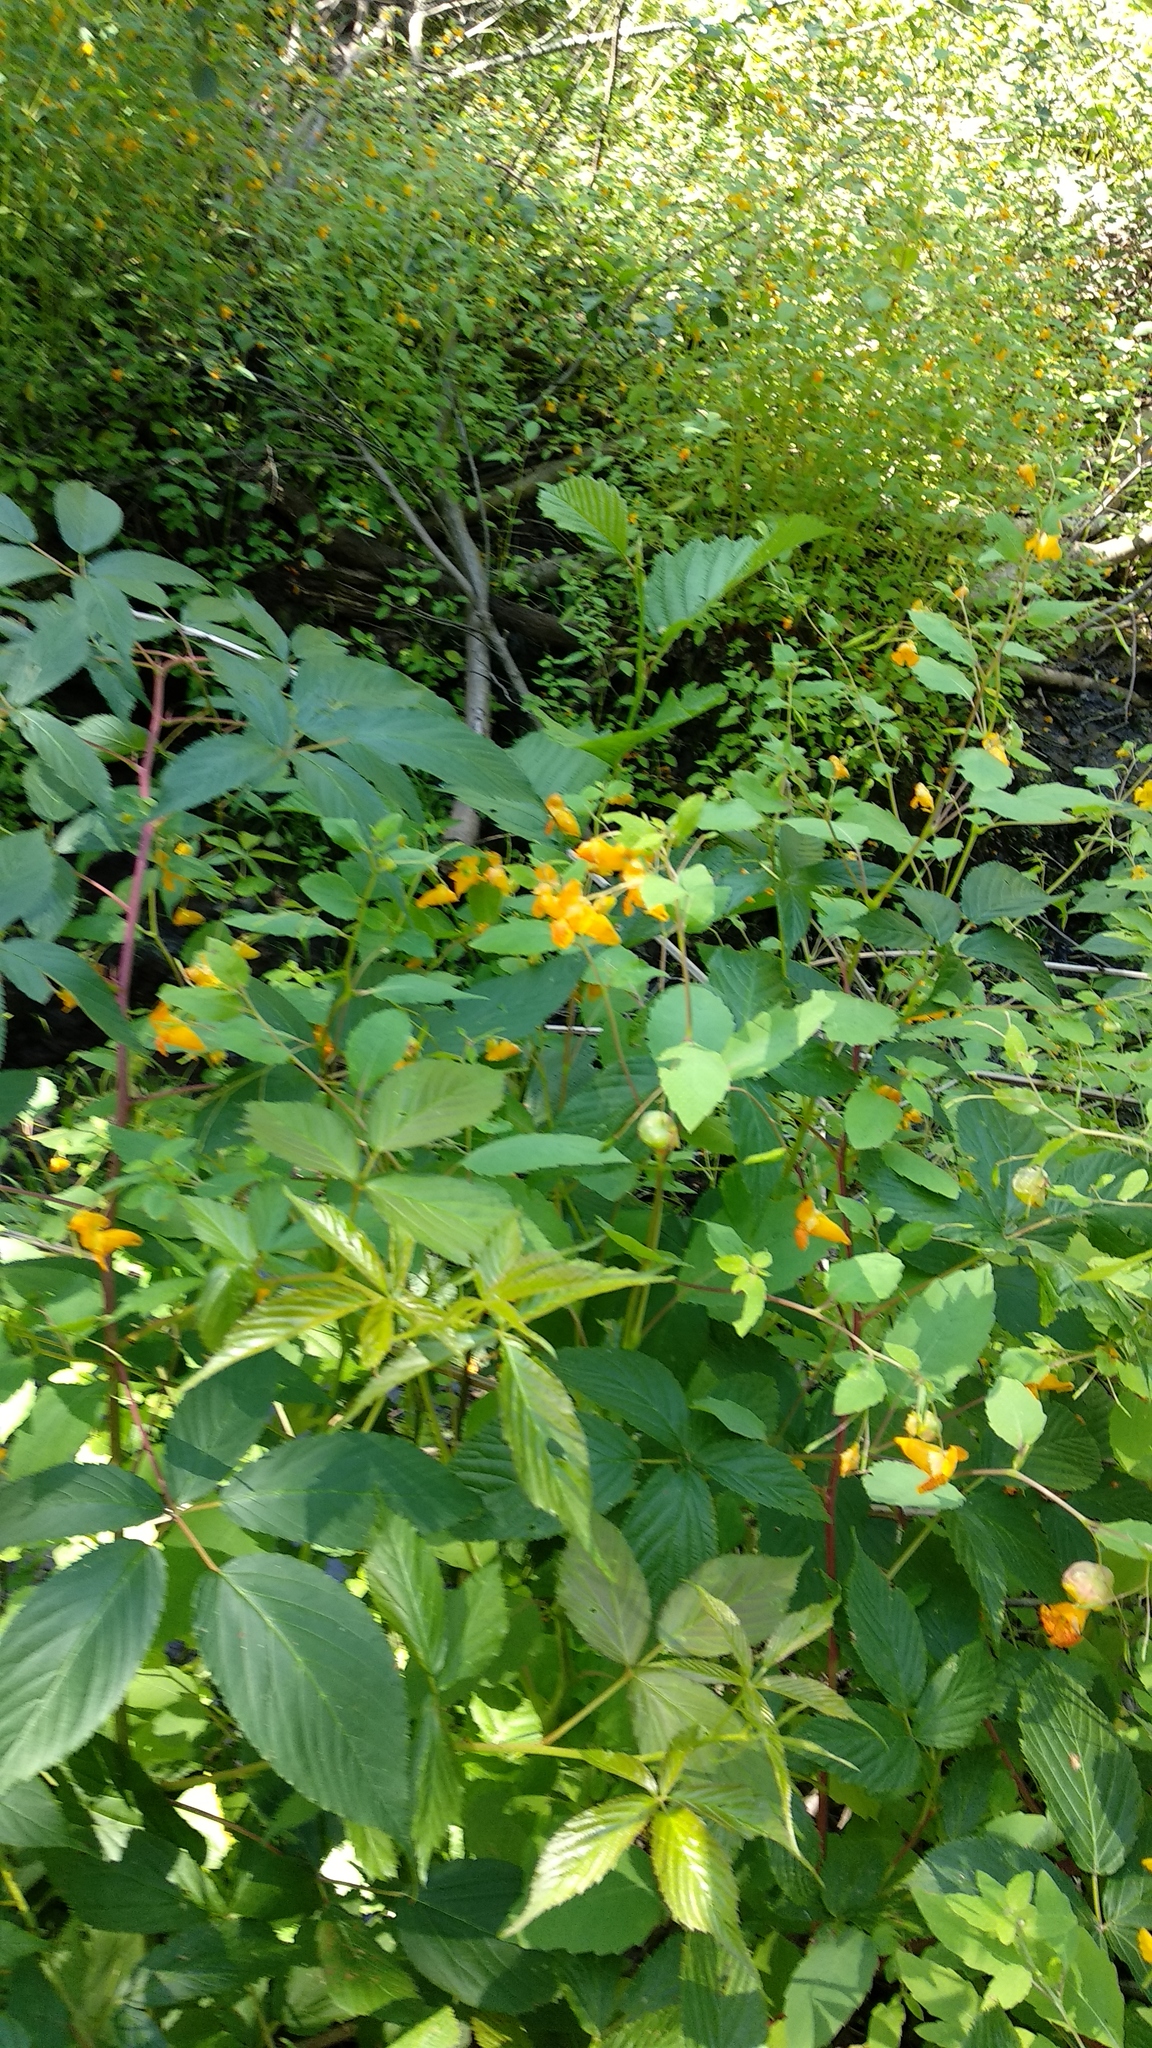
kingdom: Plantae
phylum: Tracheophyta
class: Magnoliopsida
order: Ericales
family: Balsaminaceae
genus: Impatiens
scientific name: Impatiens capensis
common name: Orange balsam
